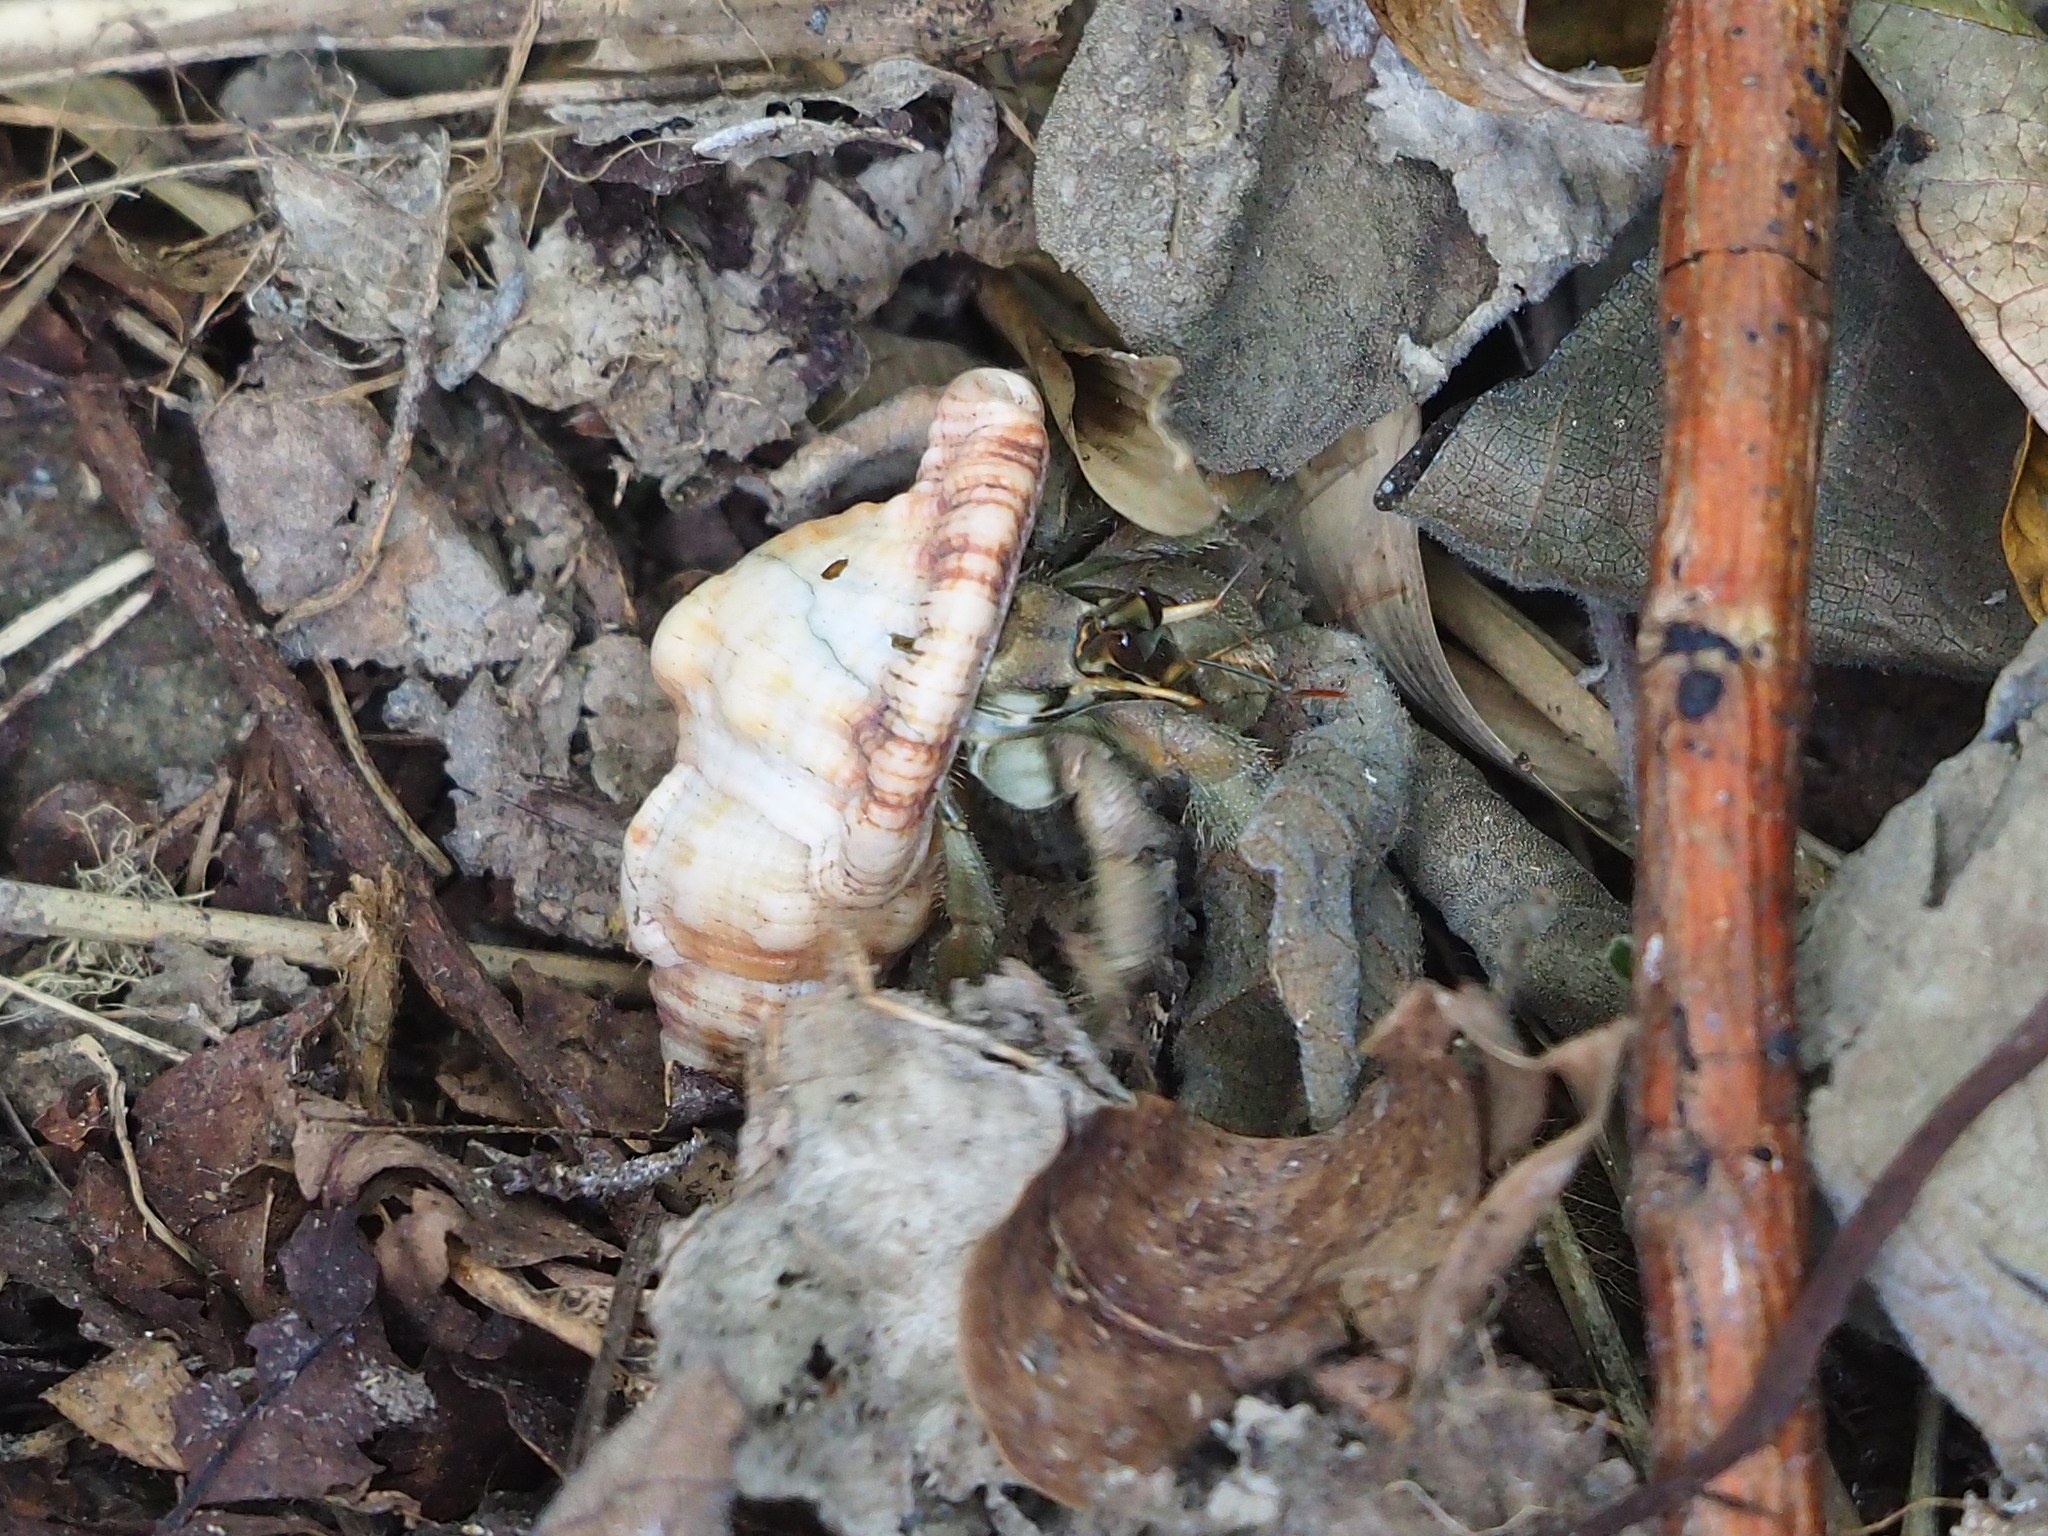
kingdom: Animalia
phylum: Arthropoda
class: Malacostraca
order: Decapoda
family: Coenobitidae
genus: Coenobita
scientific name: Coenobita rugosus
